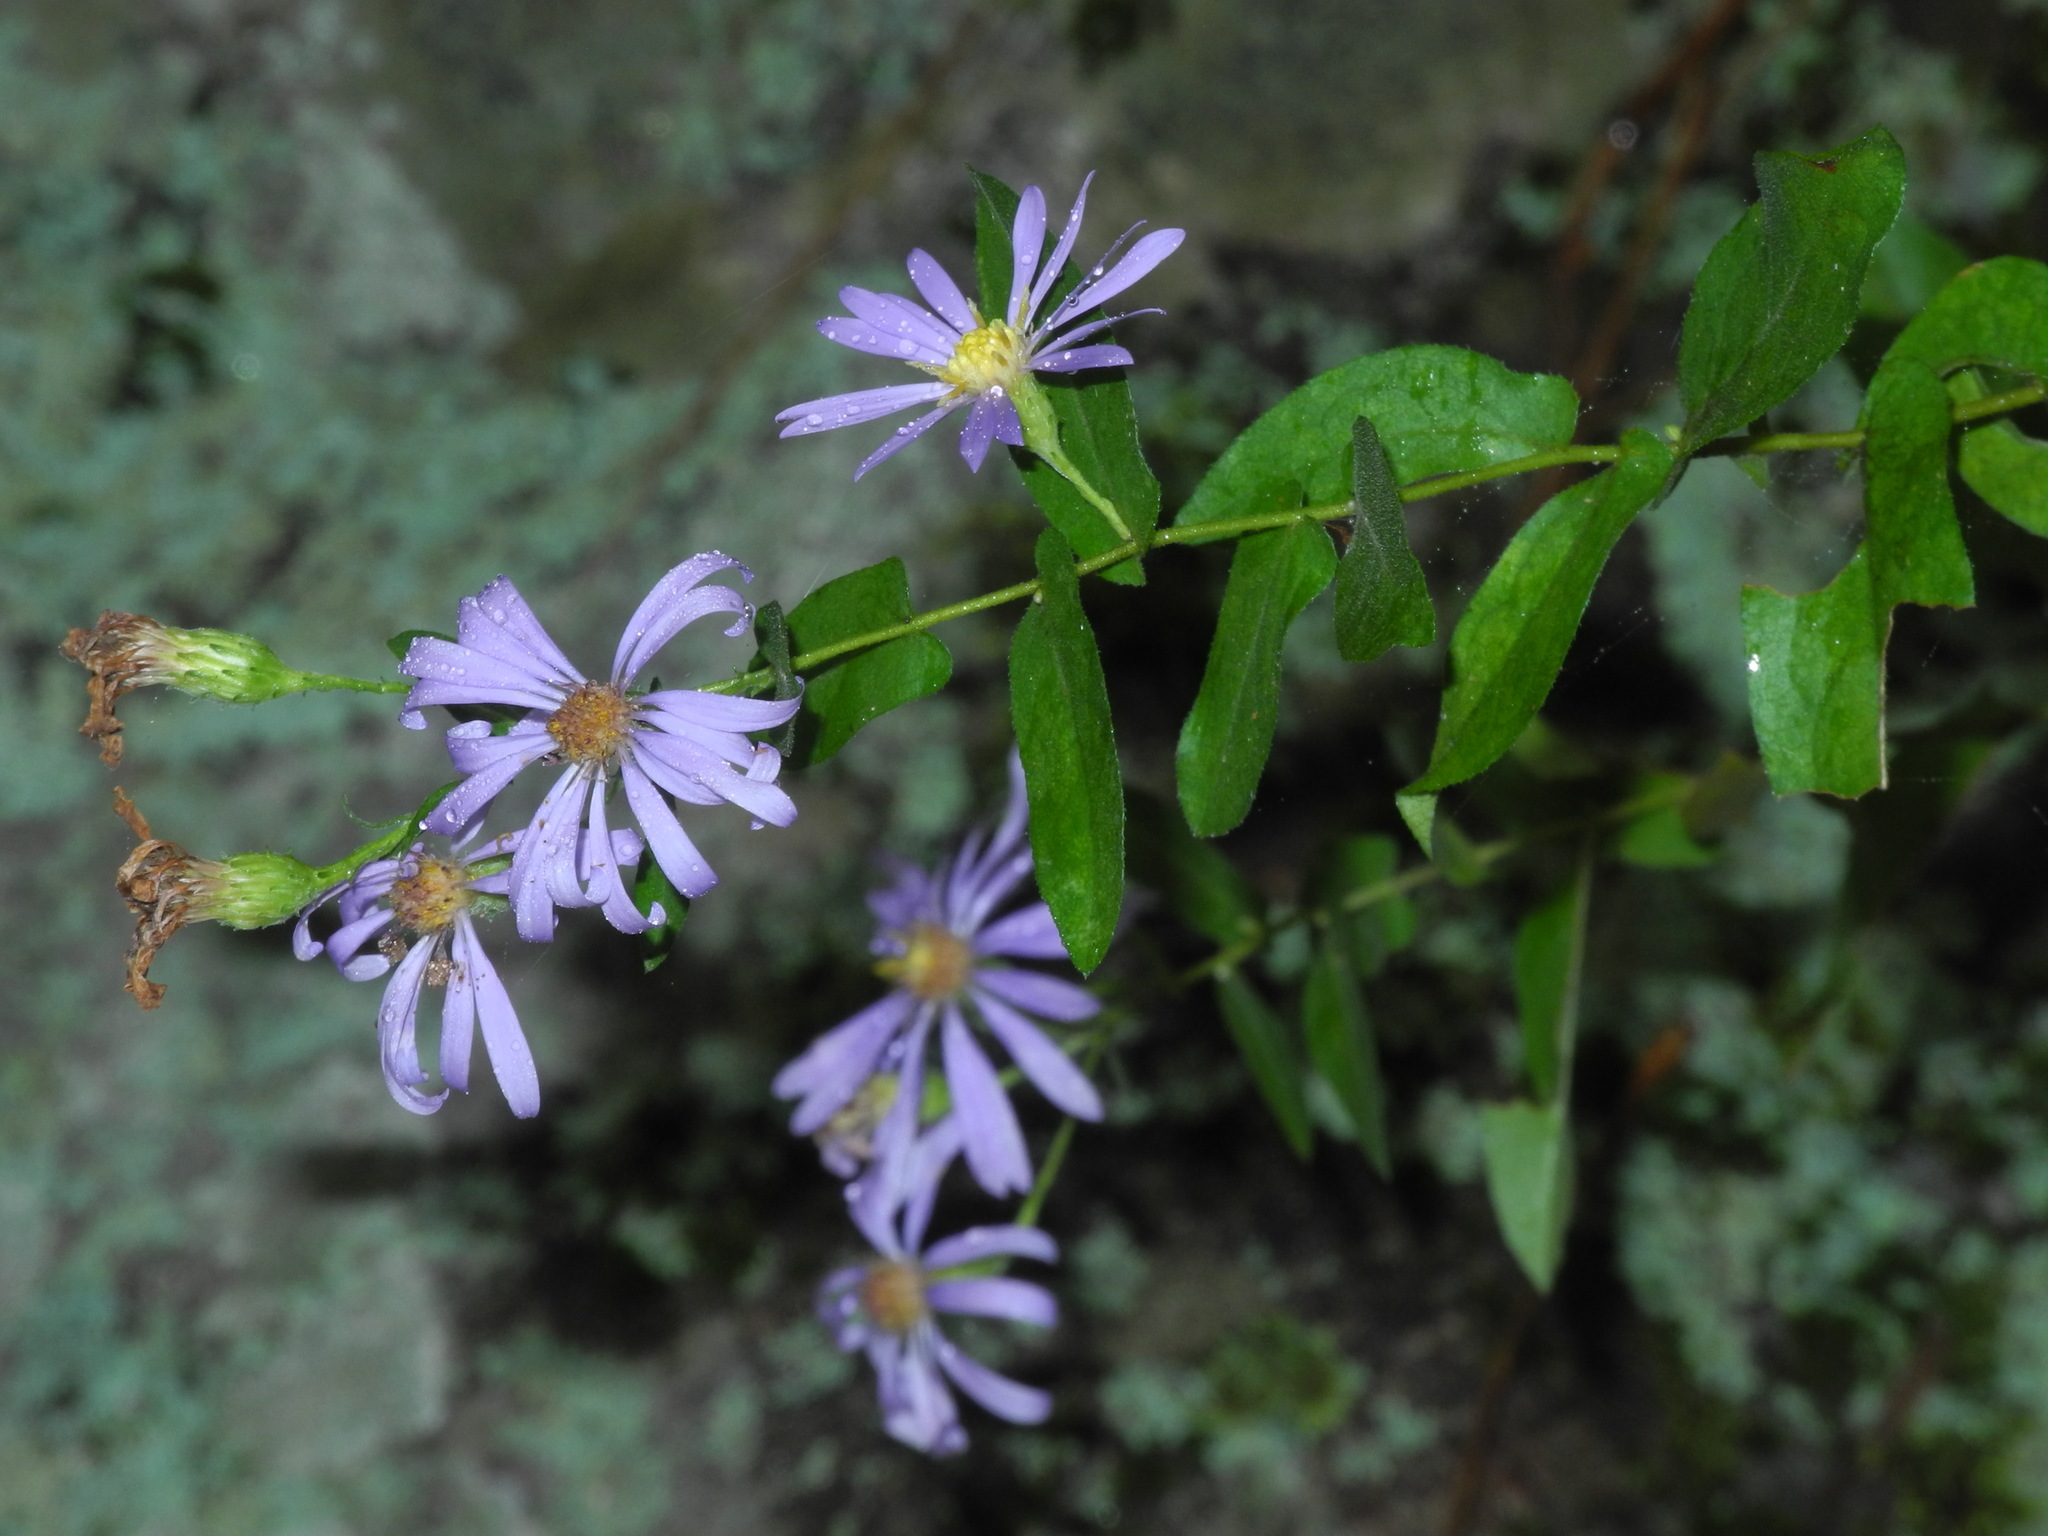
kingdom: Plantae
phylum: Tracheophyta
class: Magnoliopsida
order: Asterales
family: Asteraceae
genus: Symphyotrichum
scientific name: Symphyotrichum patens
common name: Late purple aster
